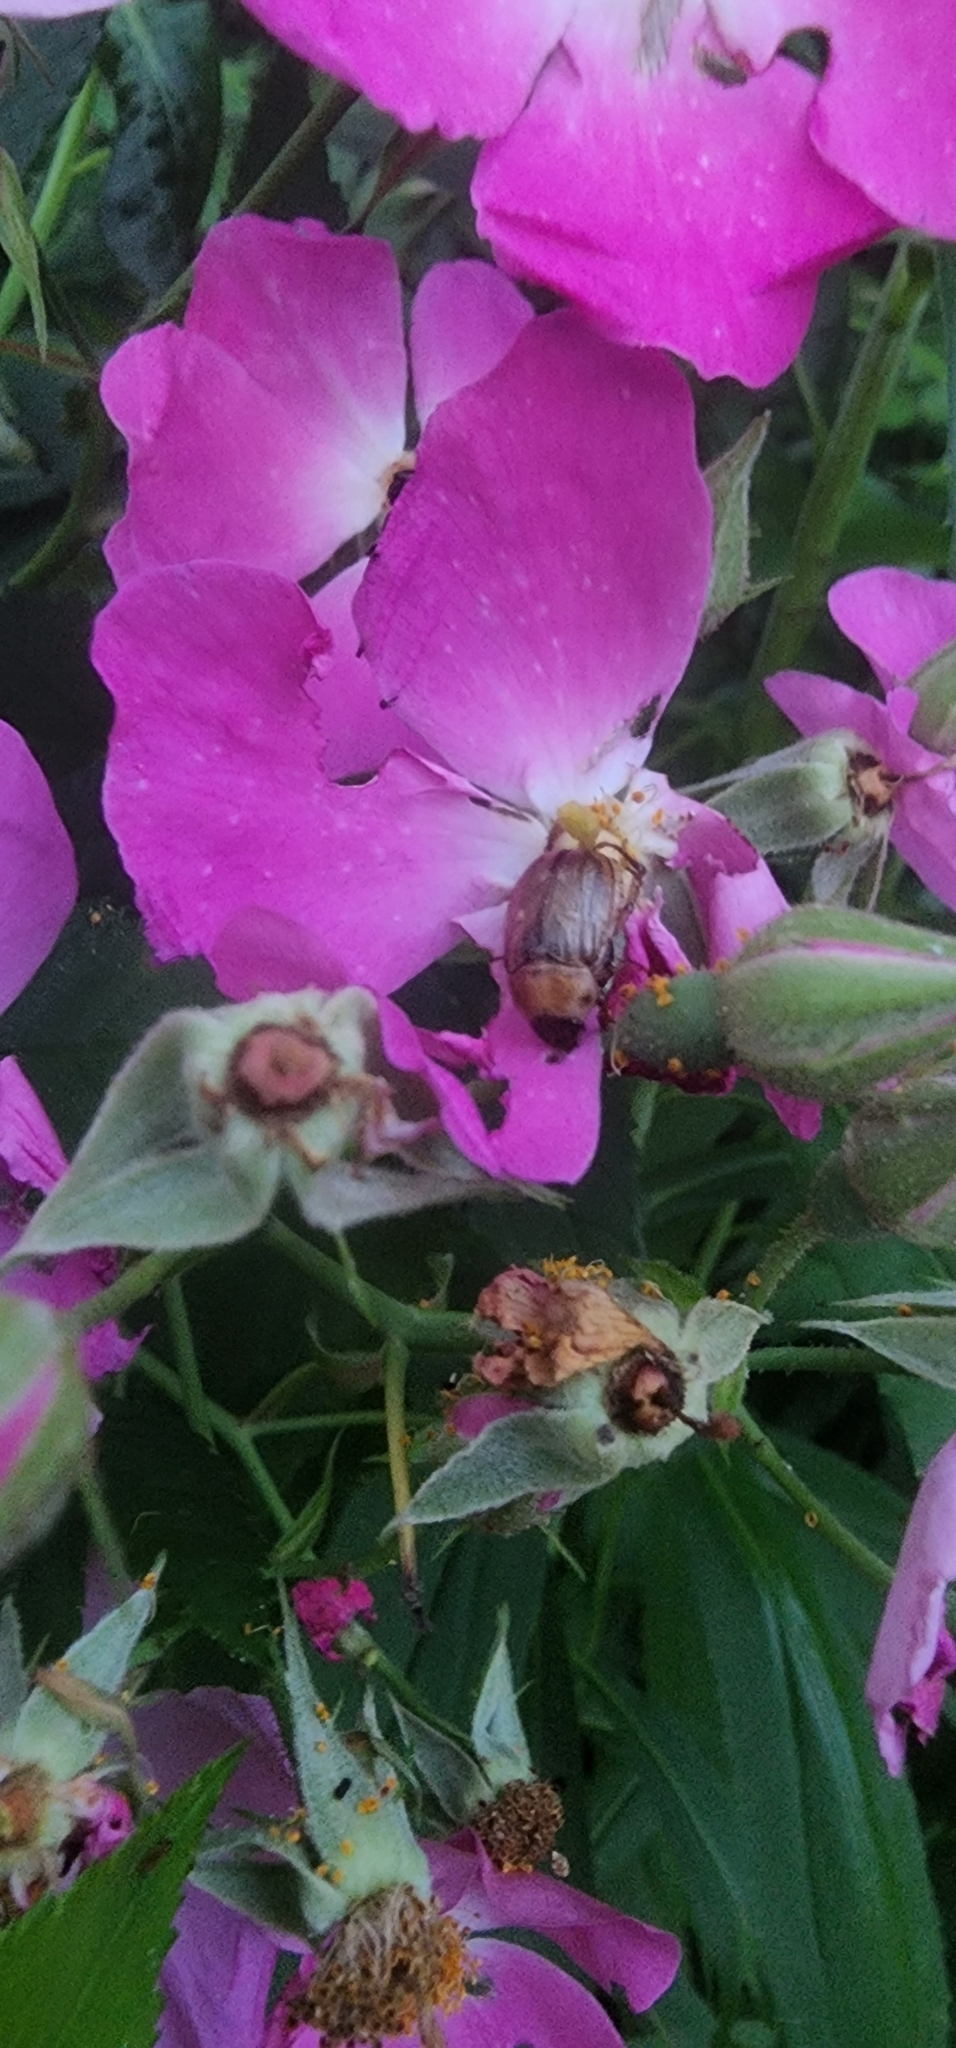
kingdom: Animalia
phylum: Arthropoda
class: Insecta
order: Coleoptera
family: Scarabaeidae
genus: Exomala
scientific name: Exomala orientalis
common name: Oriental beetle
